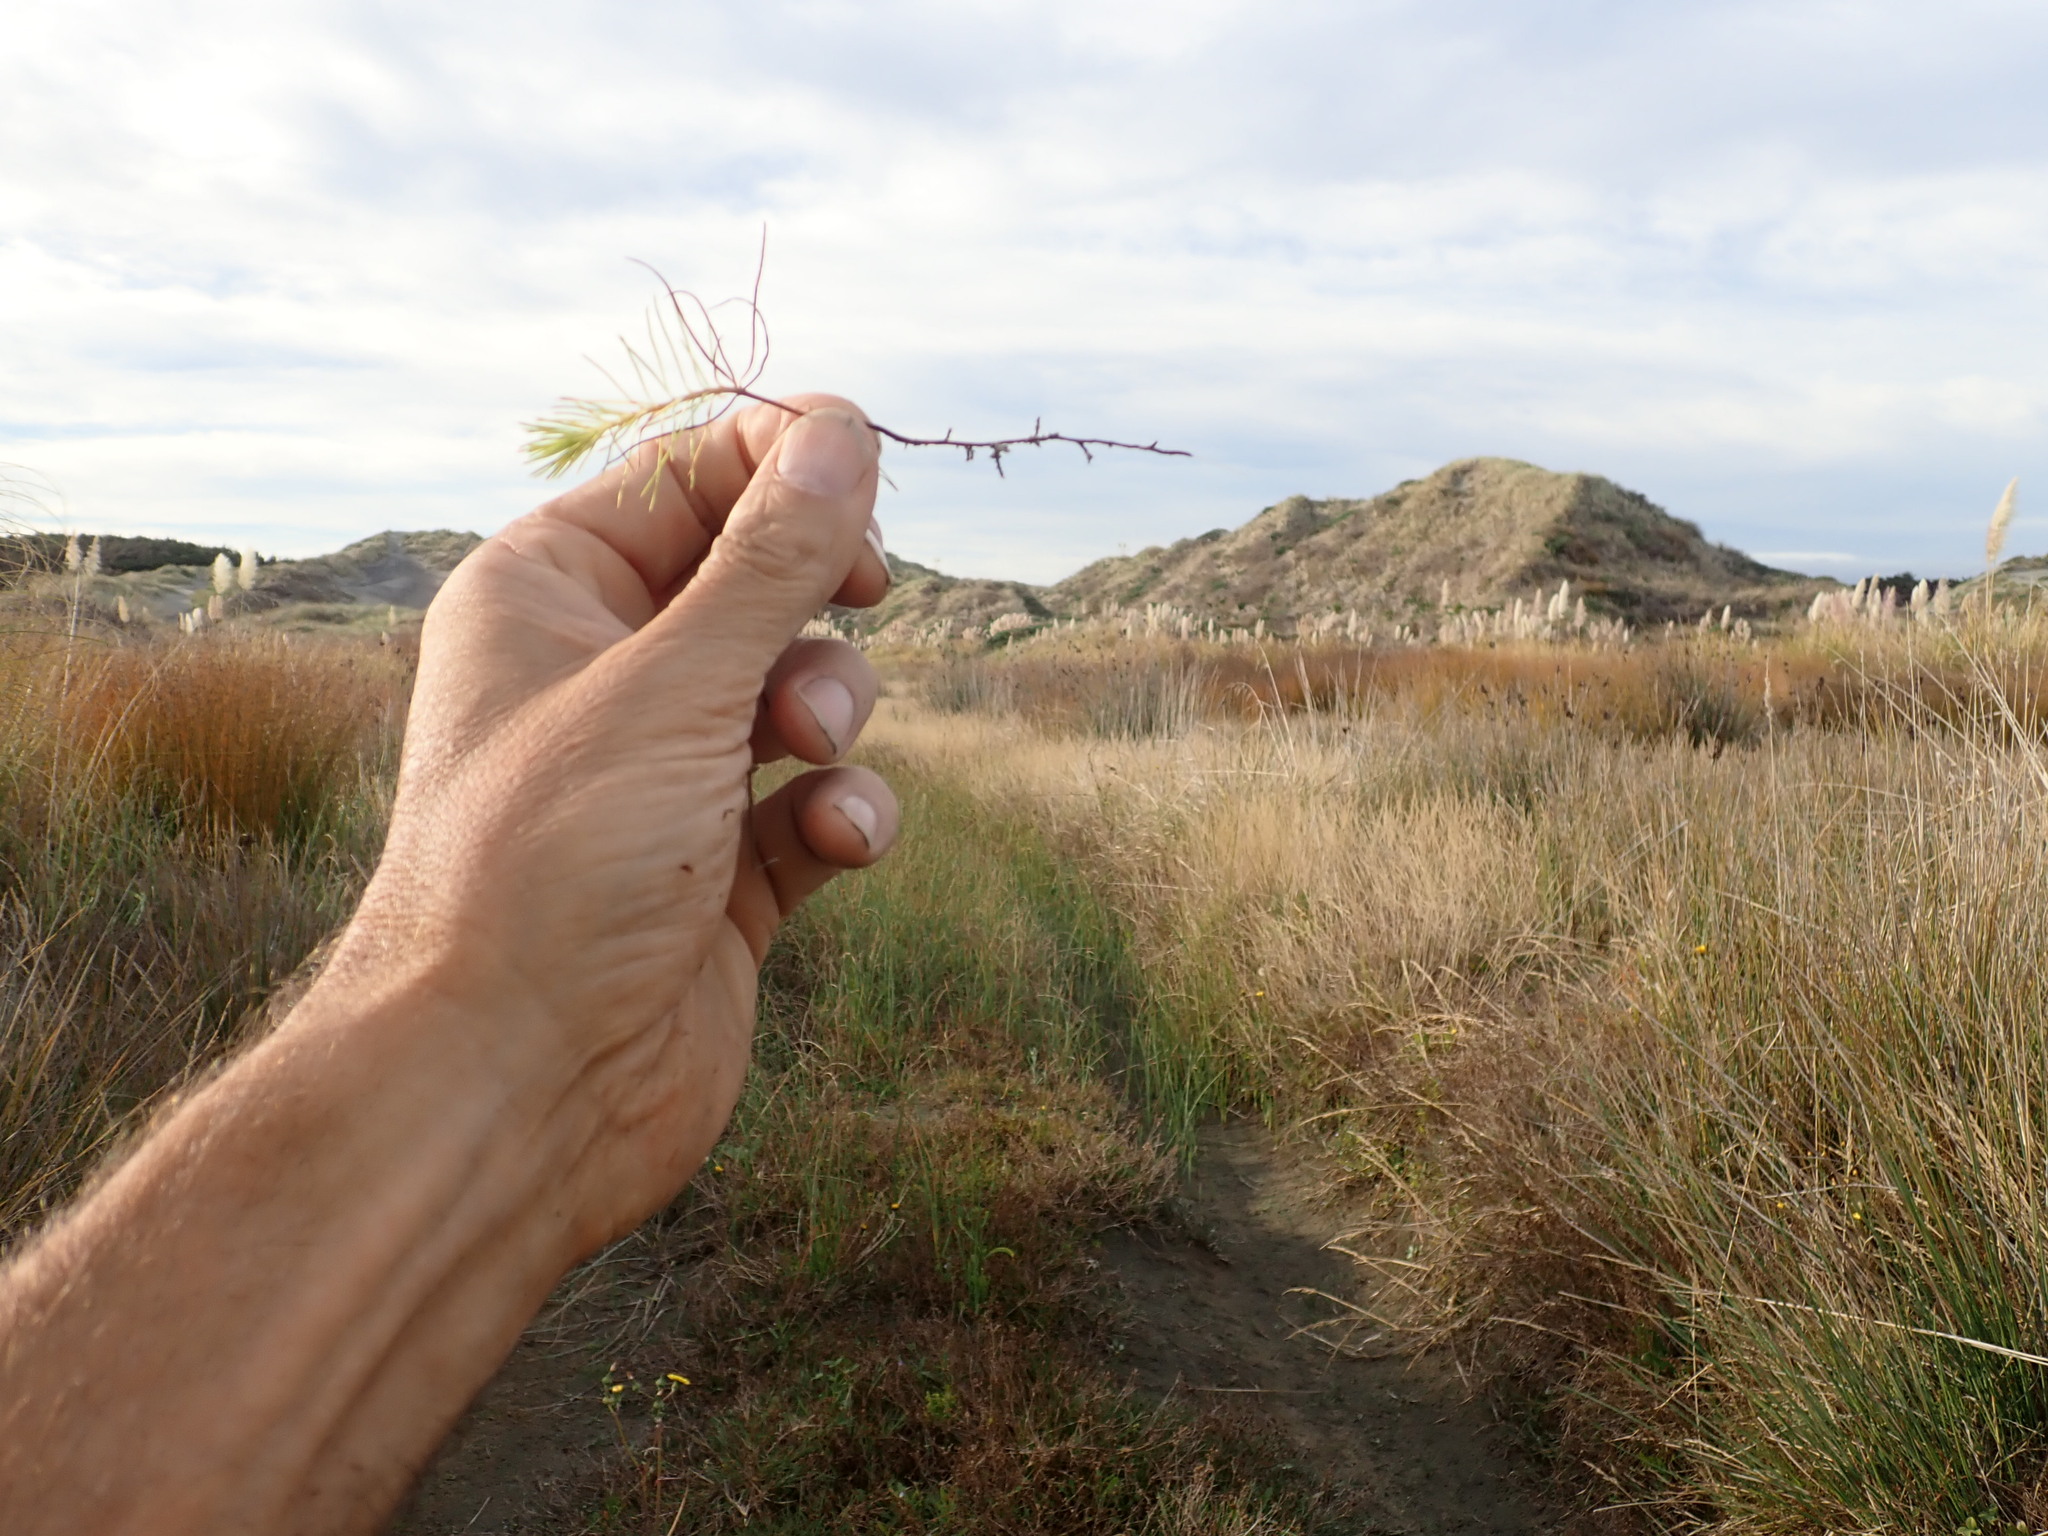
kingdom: Plantae
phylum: Tracheophyta
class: Pinopsida
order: Pinales
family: Pinaceae
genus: Pinus
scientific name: Pinus radiata
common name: Monterey pine
